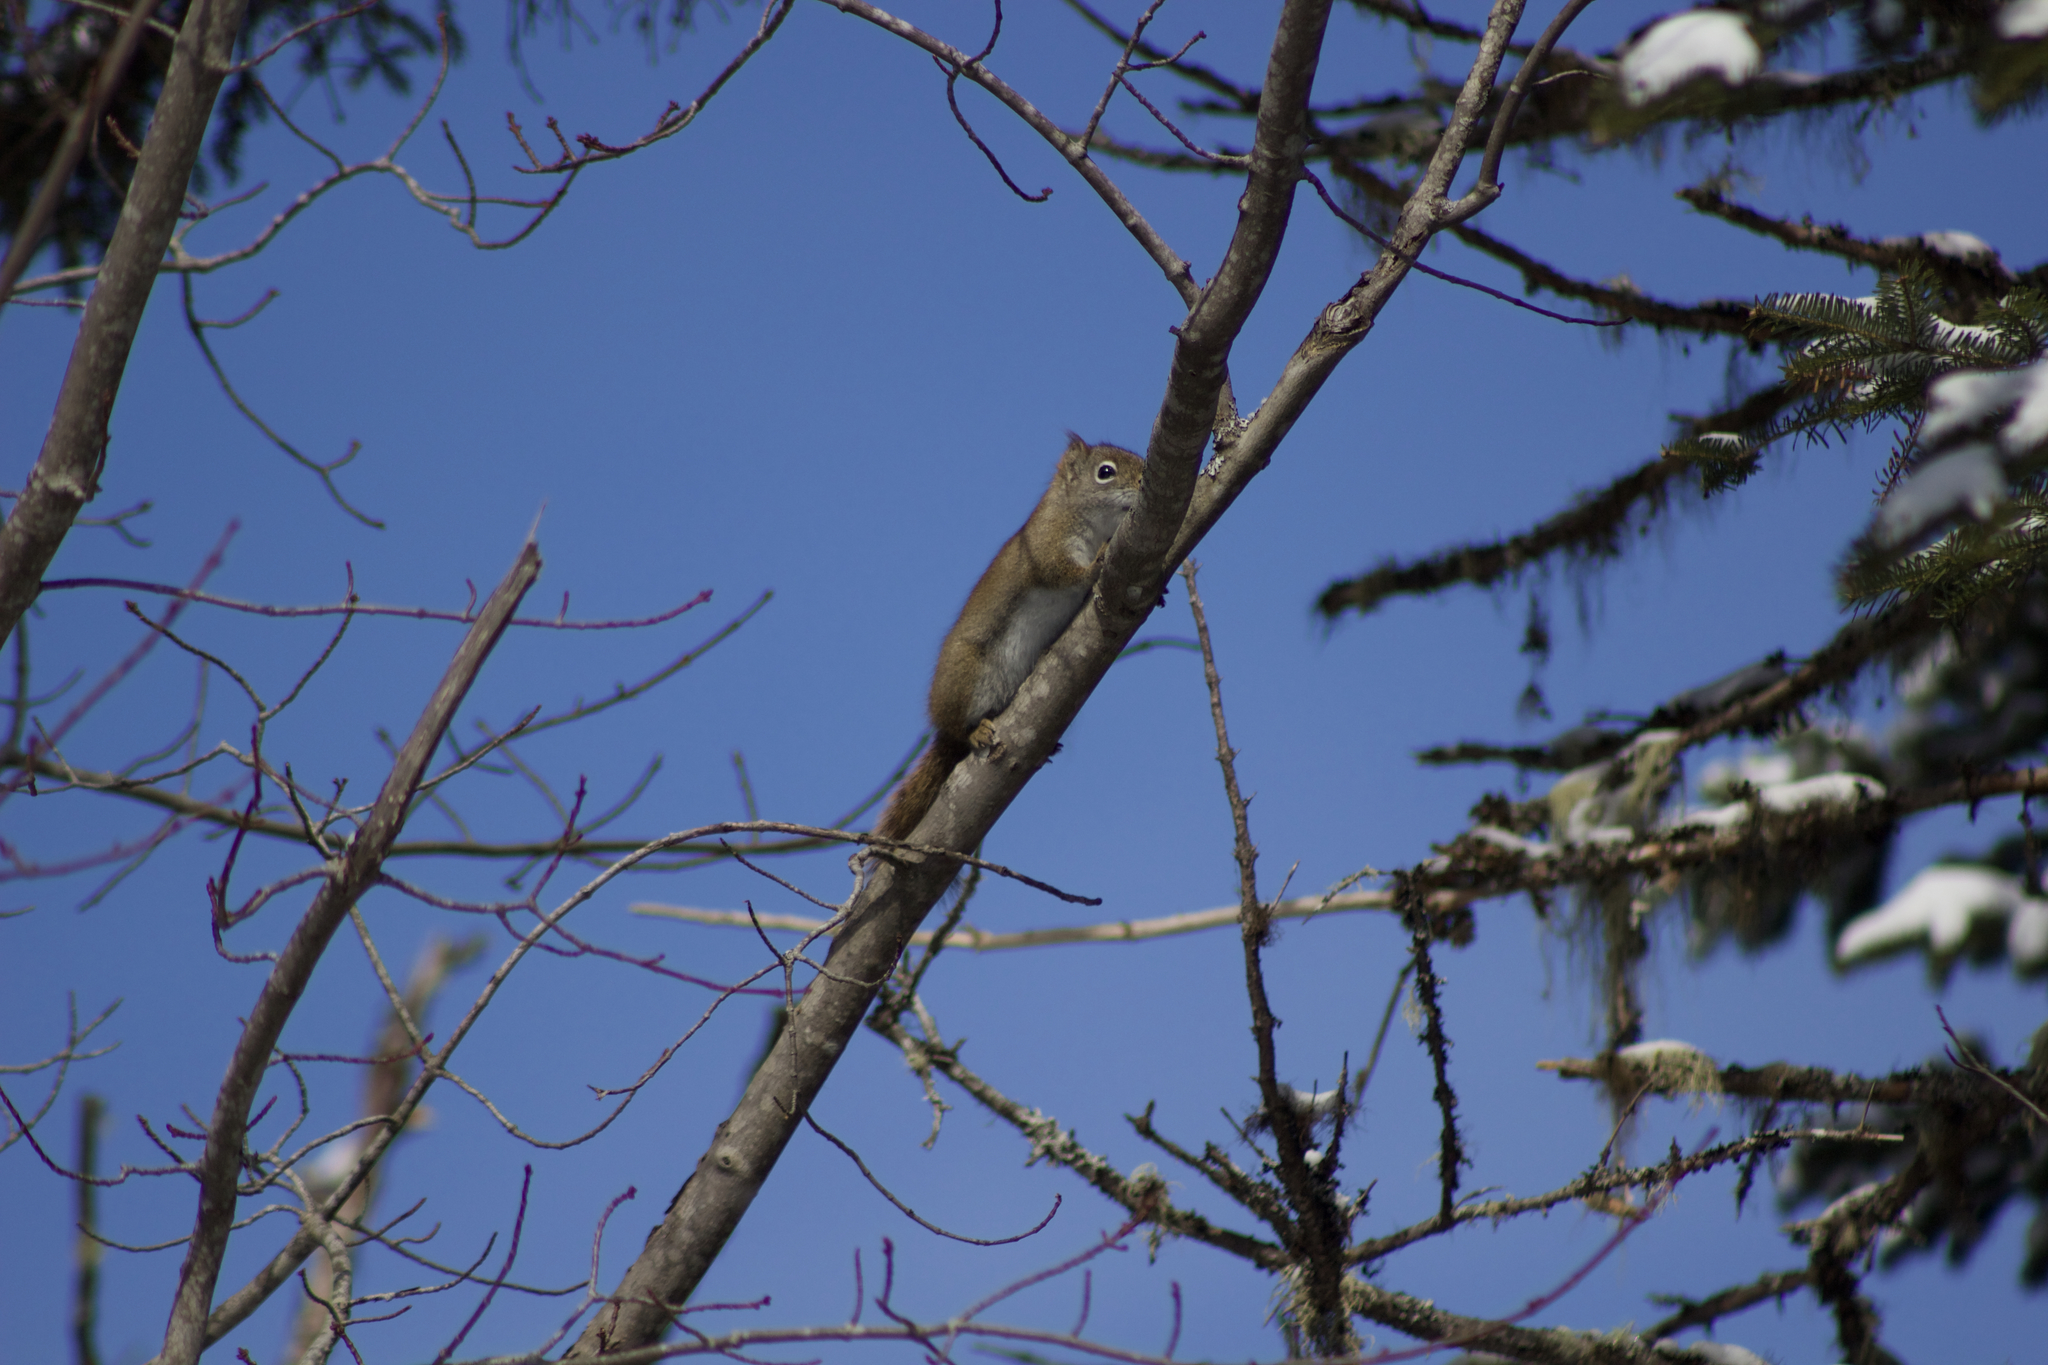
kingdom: Animalia
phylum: Chordata
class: Mammalia
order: Rodentia
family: Sciuridae
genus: Tamiasciurus
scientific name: Tamiasciurus hudsonicus
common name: Red squirrel
